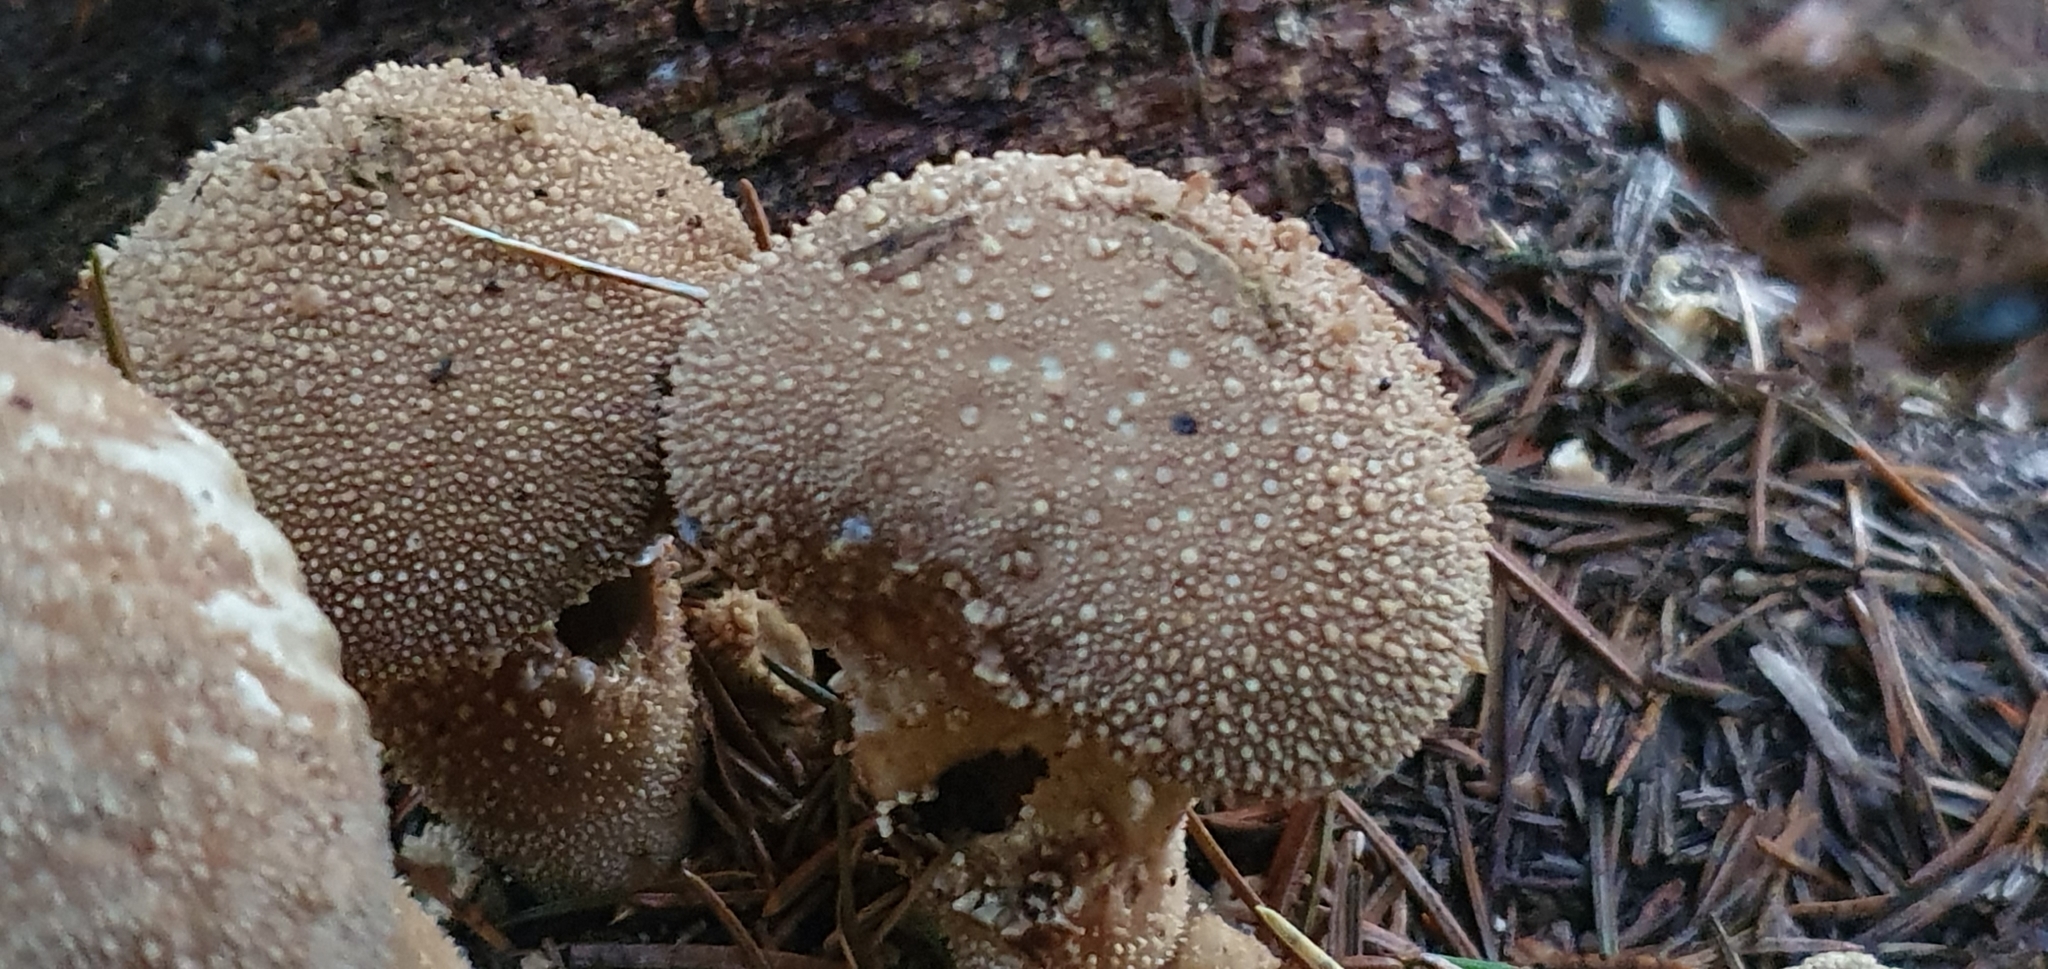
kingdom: Fungi
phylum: Basidiomycota
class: Agaricomycetes
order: Agaricales
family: Lycoperdaceae
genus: Lycoperdon
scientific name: Lycoperdon perlatum
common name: Common puffball
